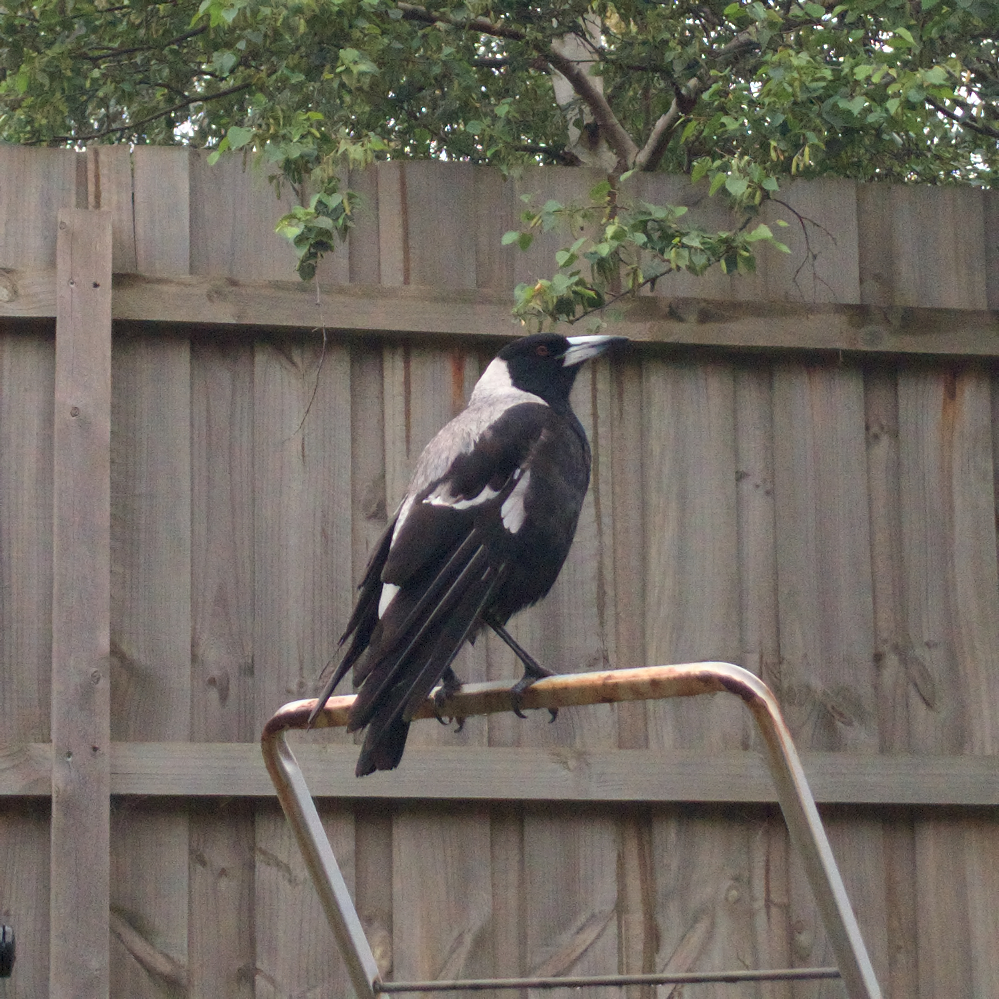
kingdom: Animalia
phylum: Chordata
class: Aves
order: Passeriformes
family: Cracticidae
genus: Gymnorhina
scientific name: Gymnorhina tibicen
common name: Australian magpie
